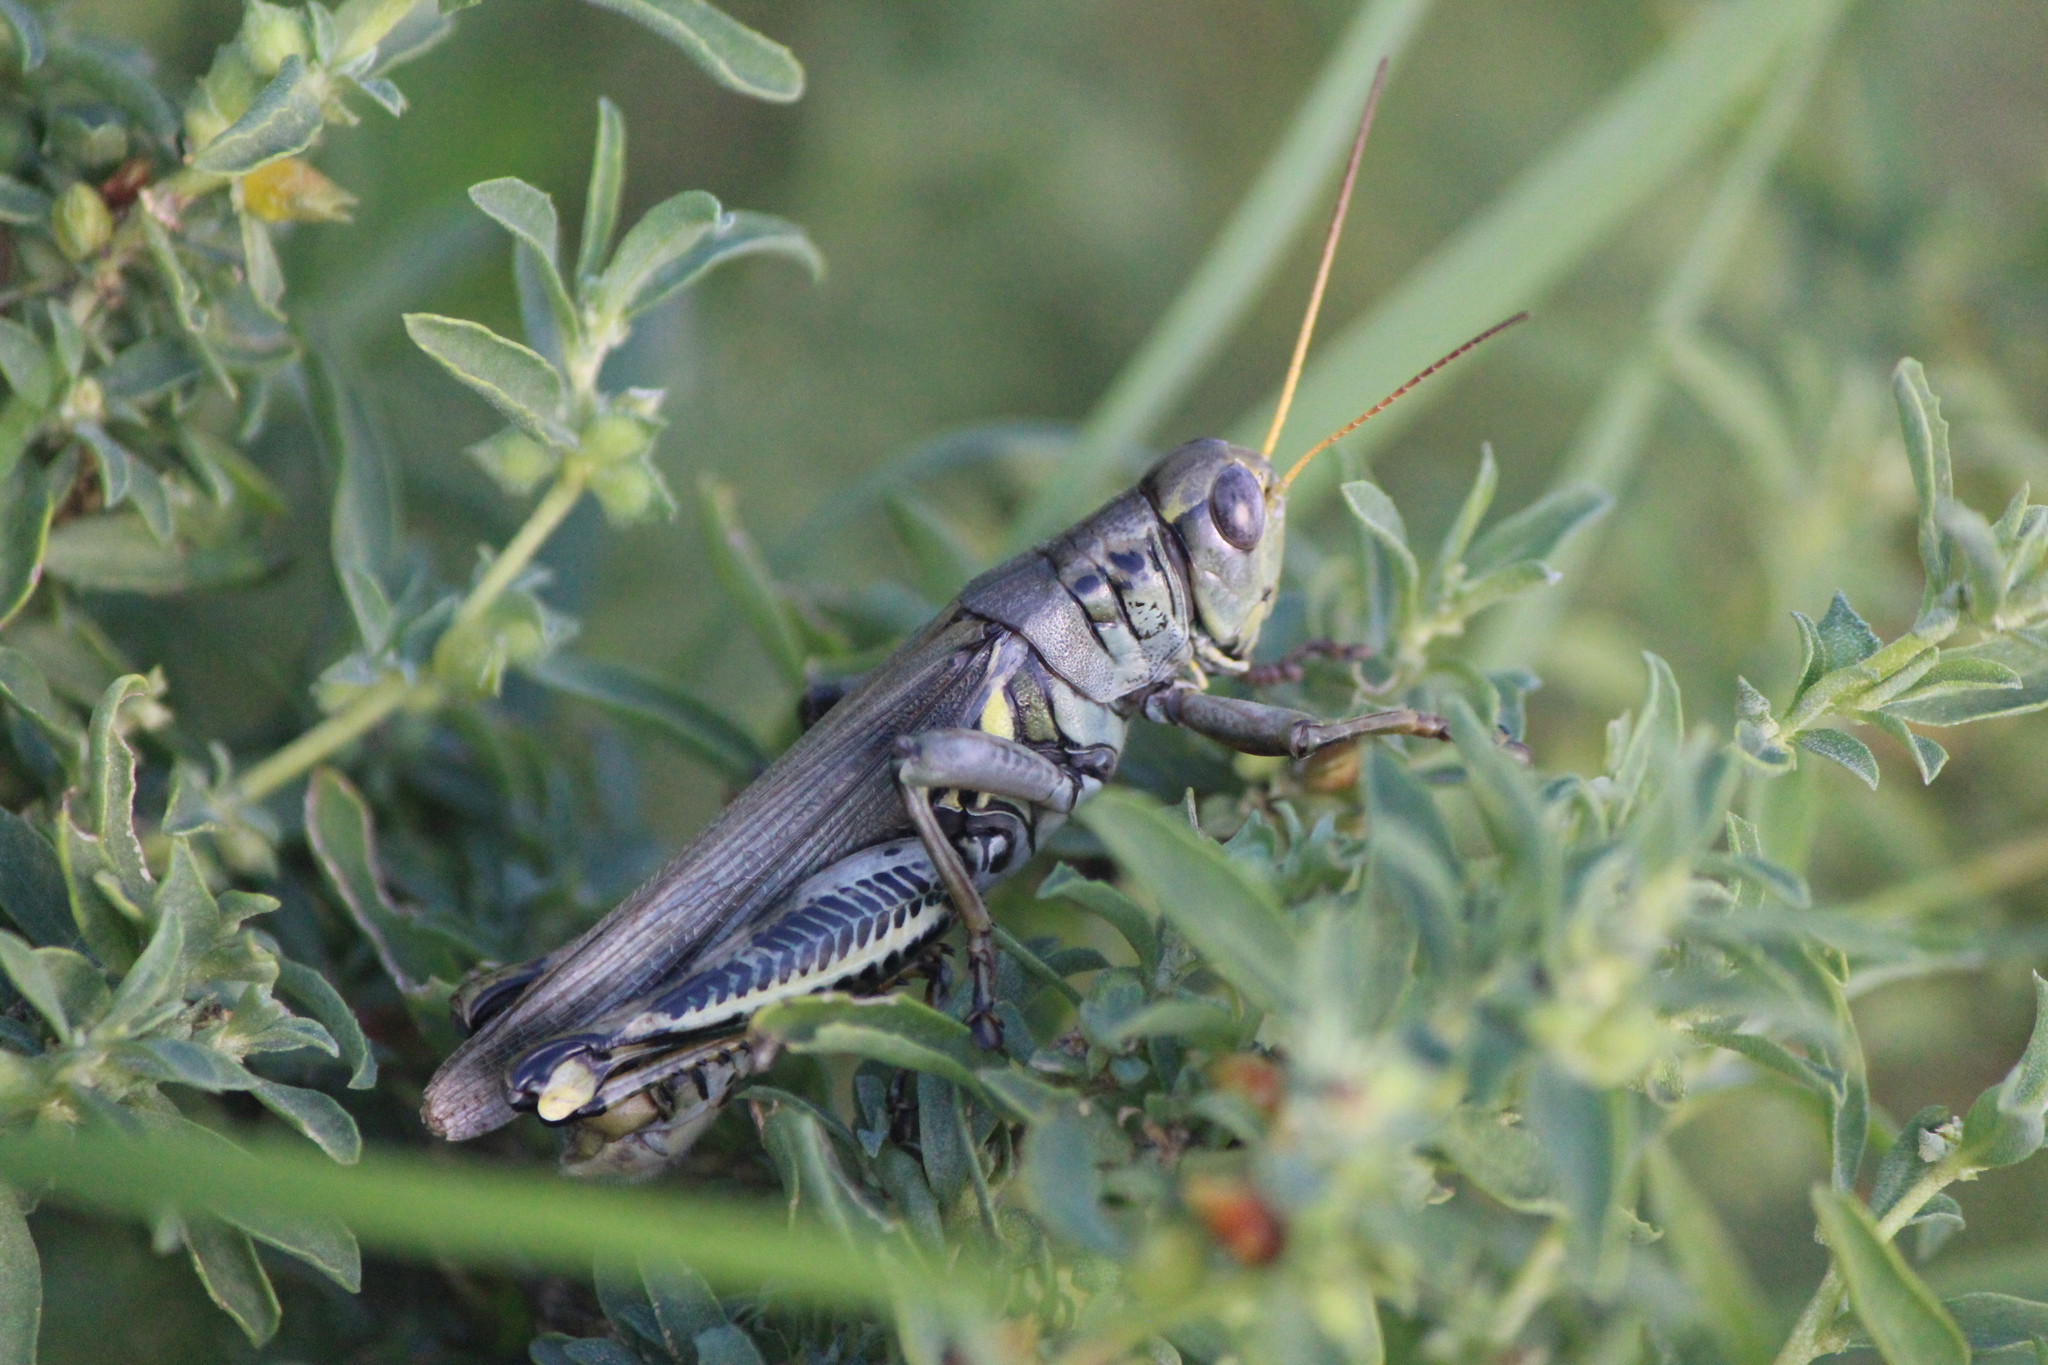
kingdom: Animalia
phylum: Arthropoda
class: Insecta
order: Orthoptera
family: Acrididae
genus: Melanoplus
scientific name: Melanoplus differentialis
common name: Differential grasshopper
